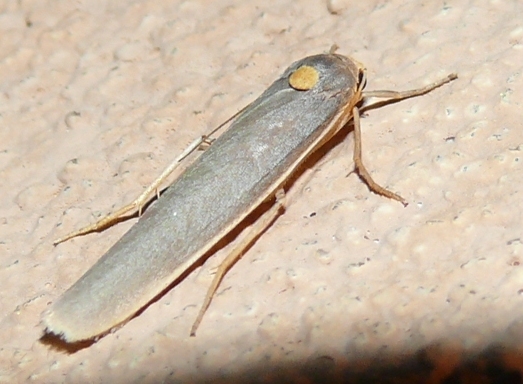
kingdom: Animalia
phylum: Arthropoda
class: Insecta
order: Lepidoptera
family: Erebidae
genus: Sozusa
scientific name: Sozusa scutellata
